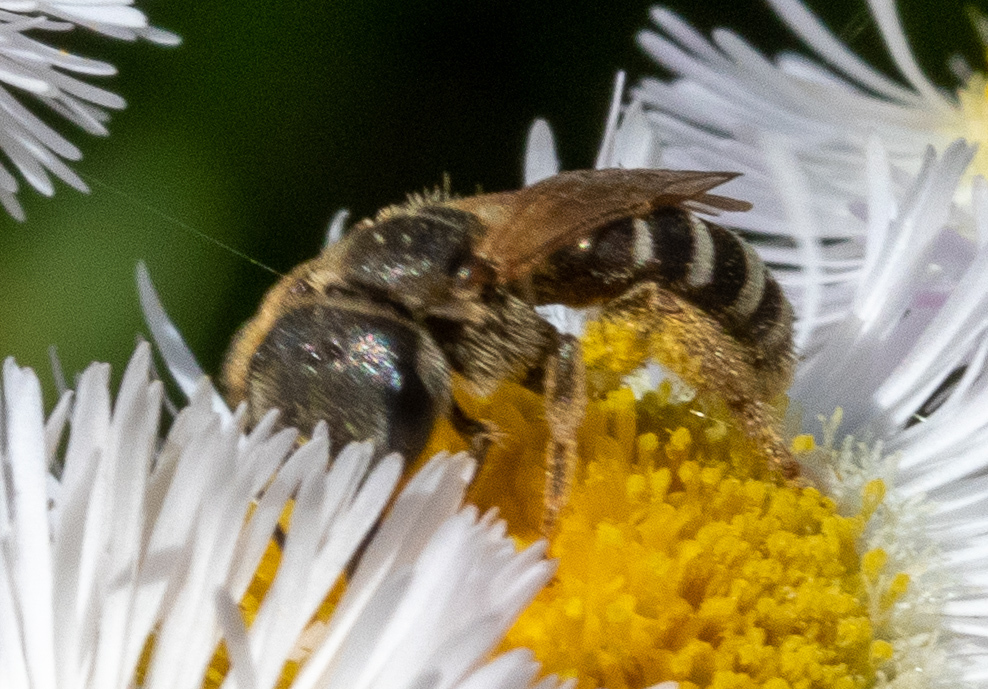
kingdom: Animalia
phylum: Arthropoda
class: Insecta
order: Hymenoptera
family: Halictidae
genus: Halictus
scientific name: Halictus ligatus
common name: Ligated furrow bee
